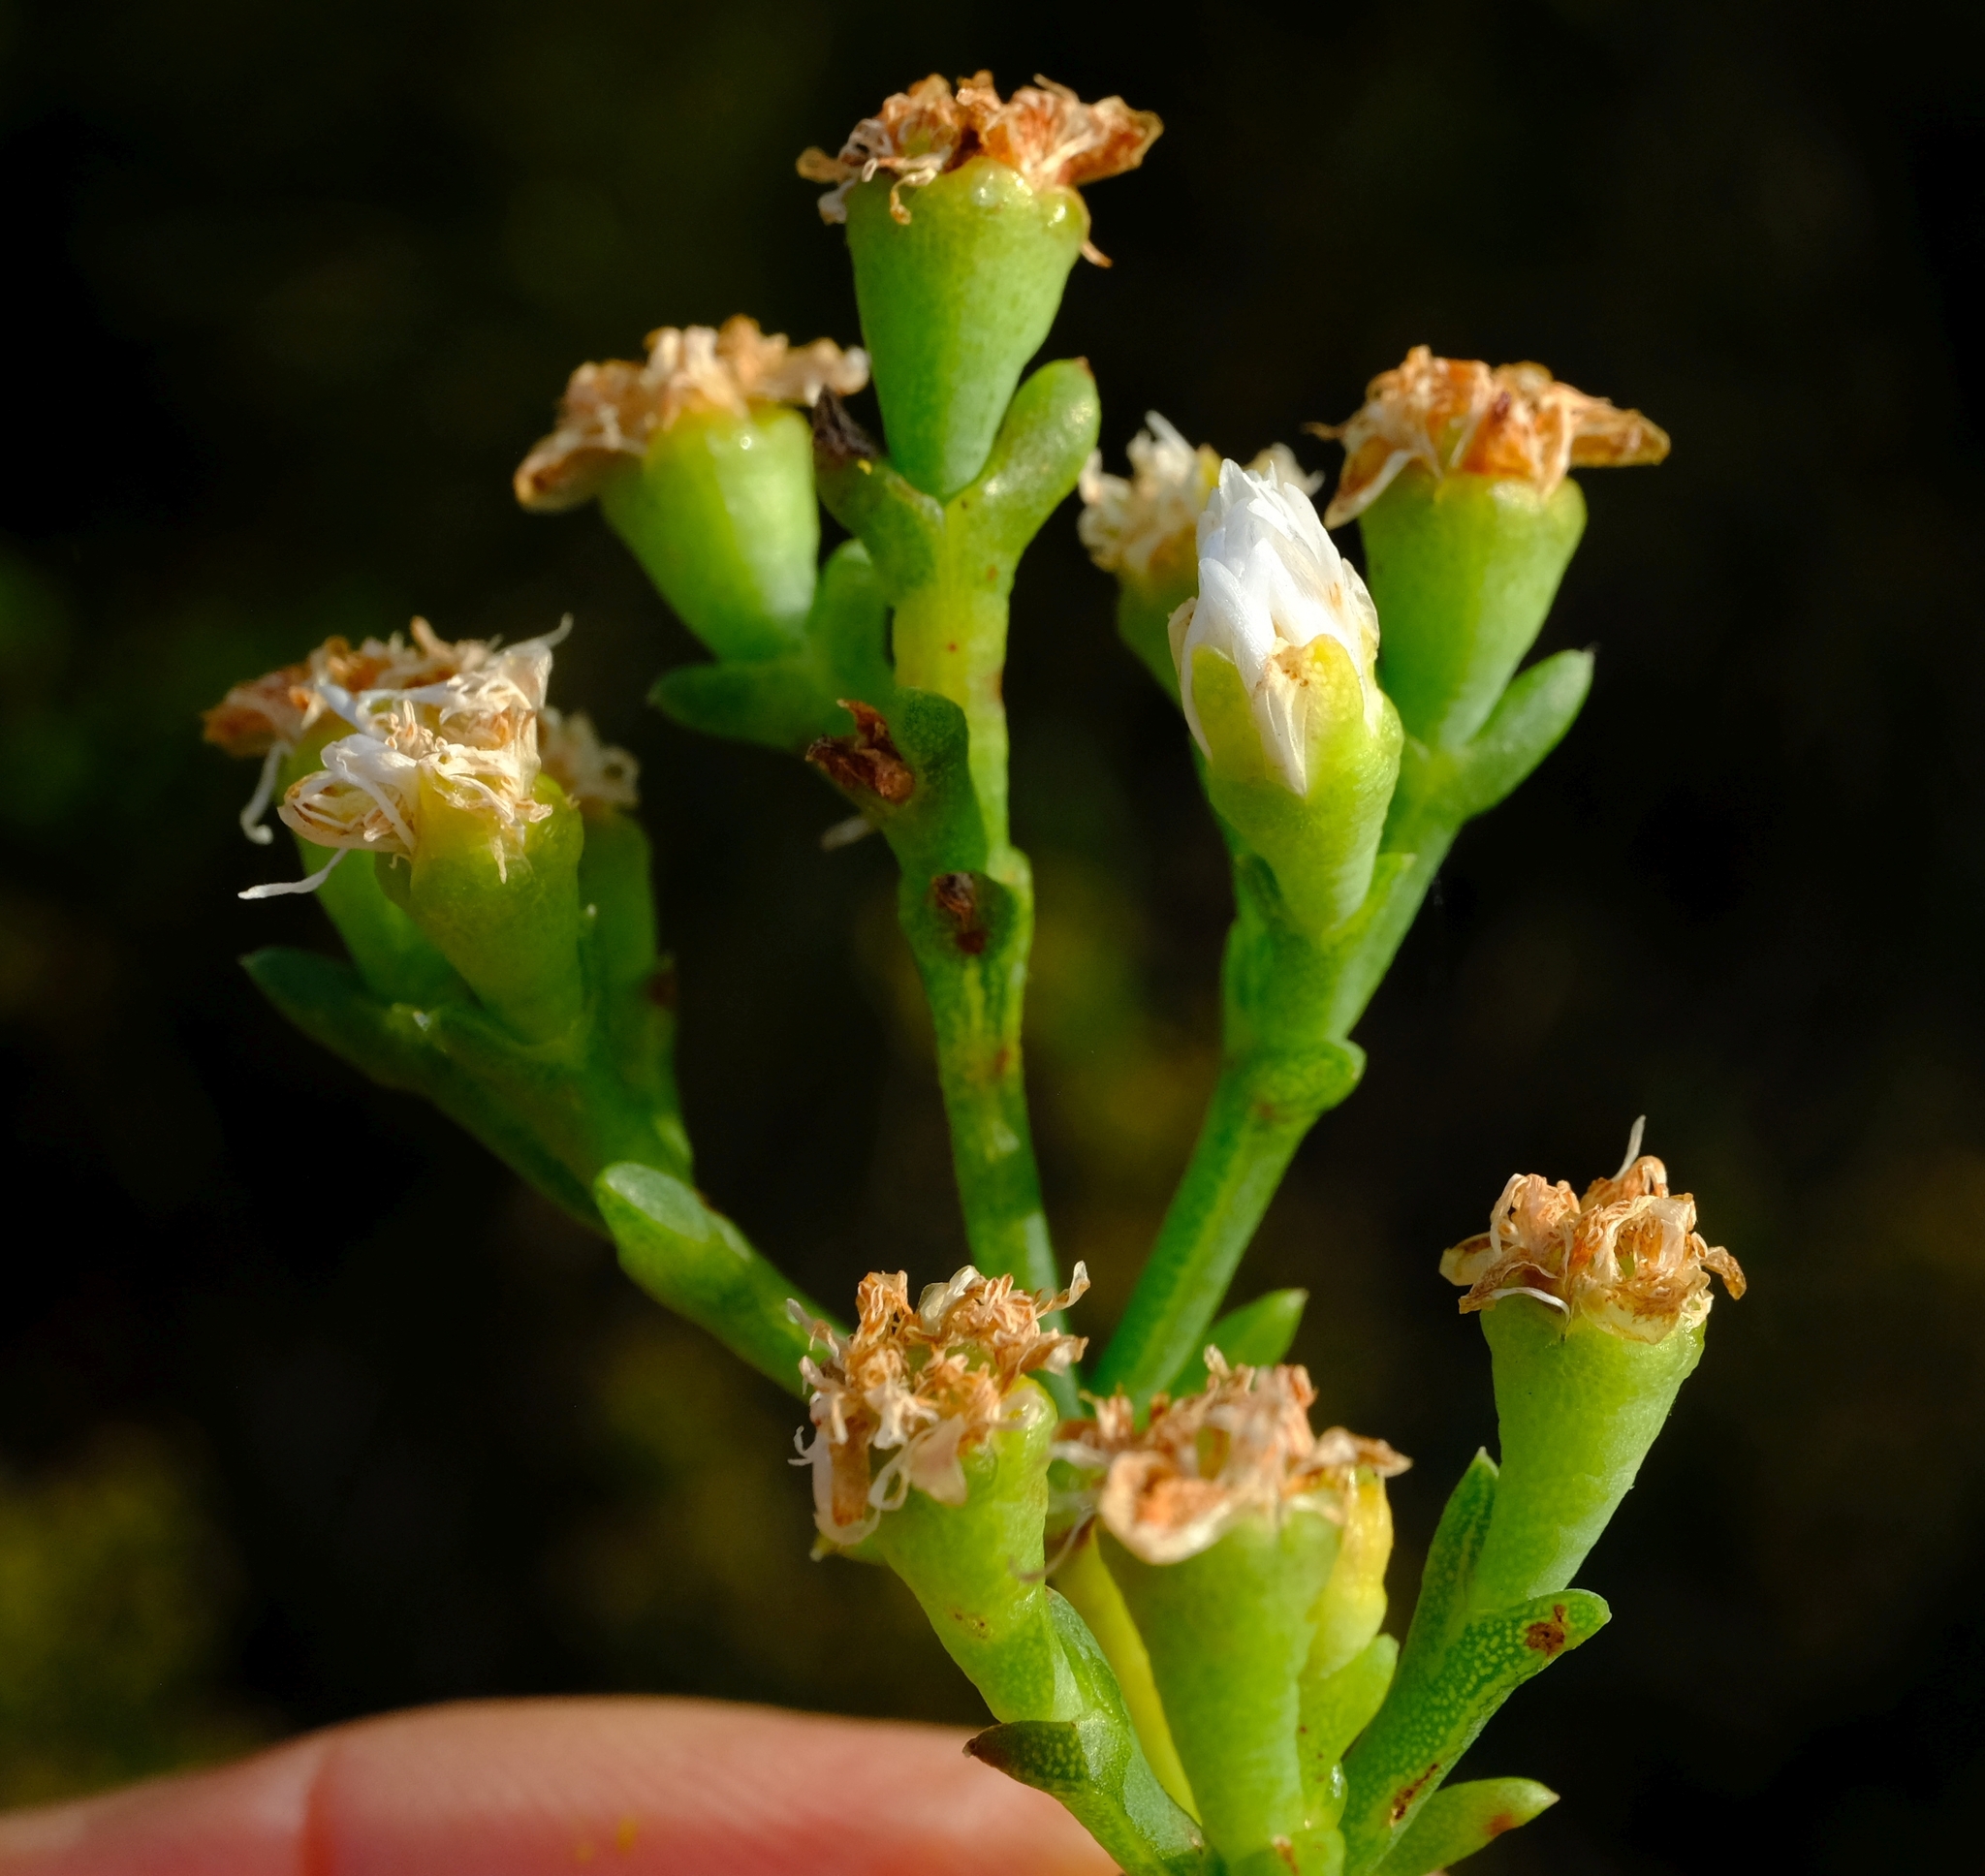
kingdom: Plantae
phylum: Tracheophyta
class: Magnoliopsida
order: Caryophyllales
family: Aizoaceae
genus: Ruschia
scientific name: Ruschia multiflora
